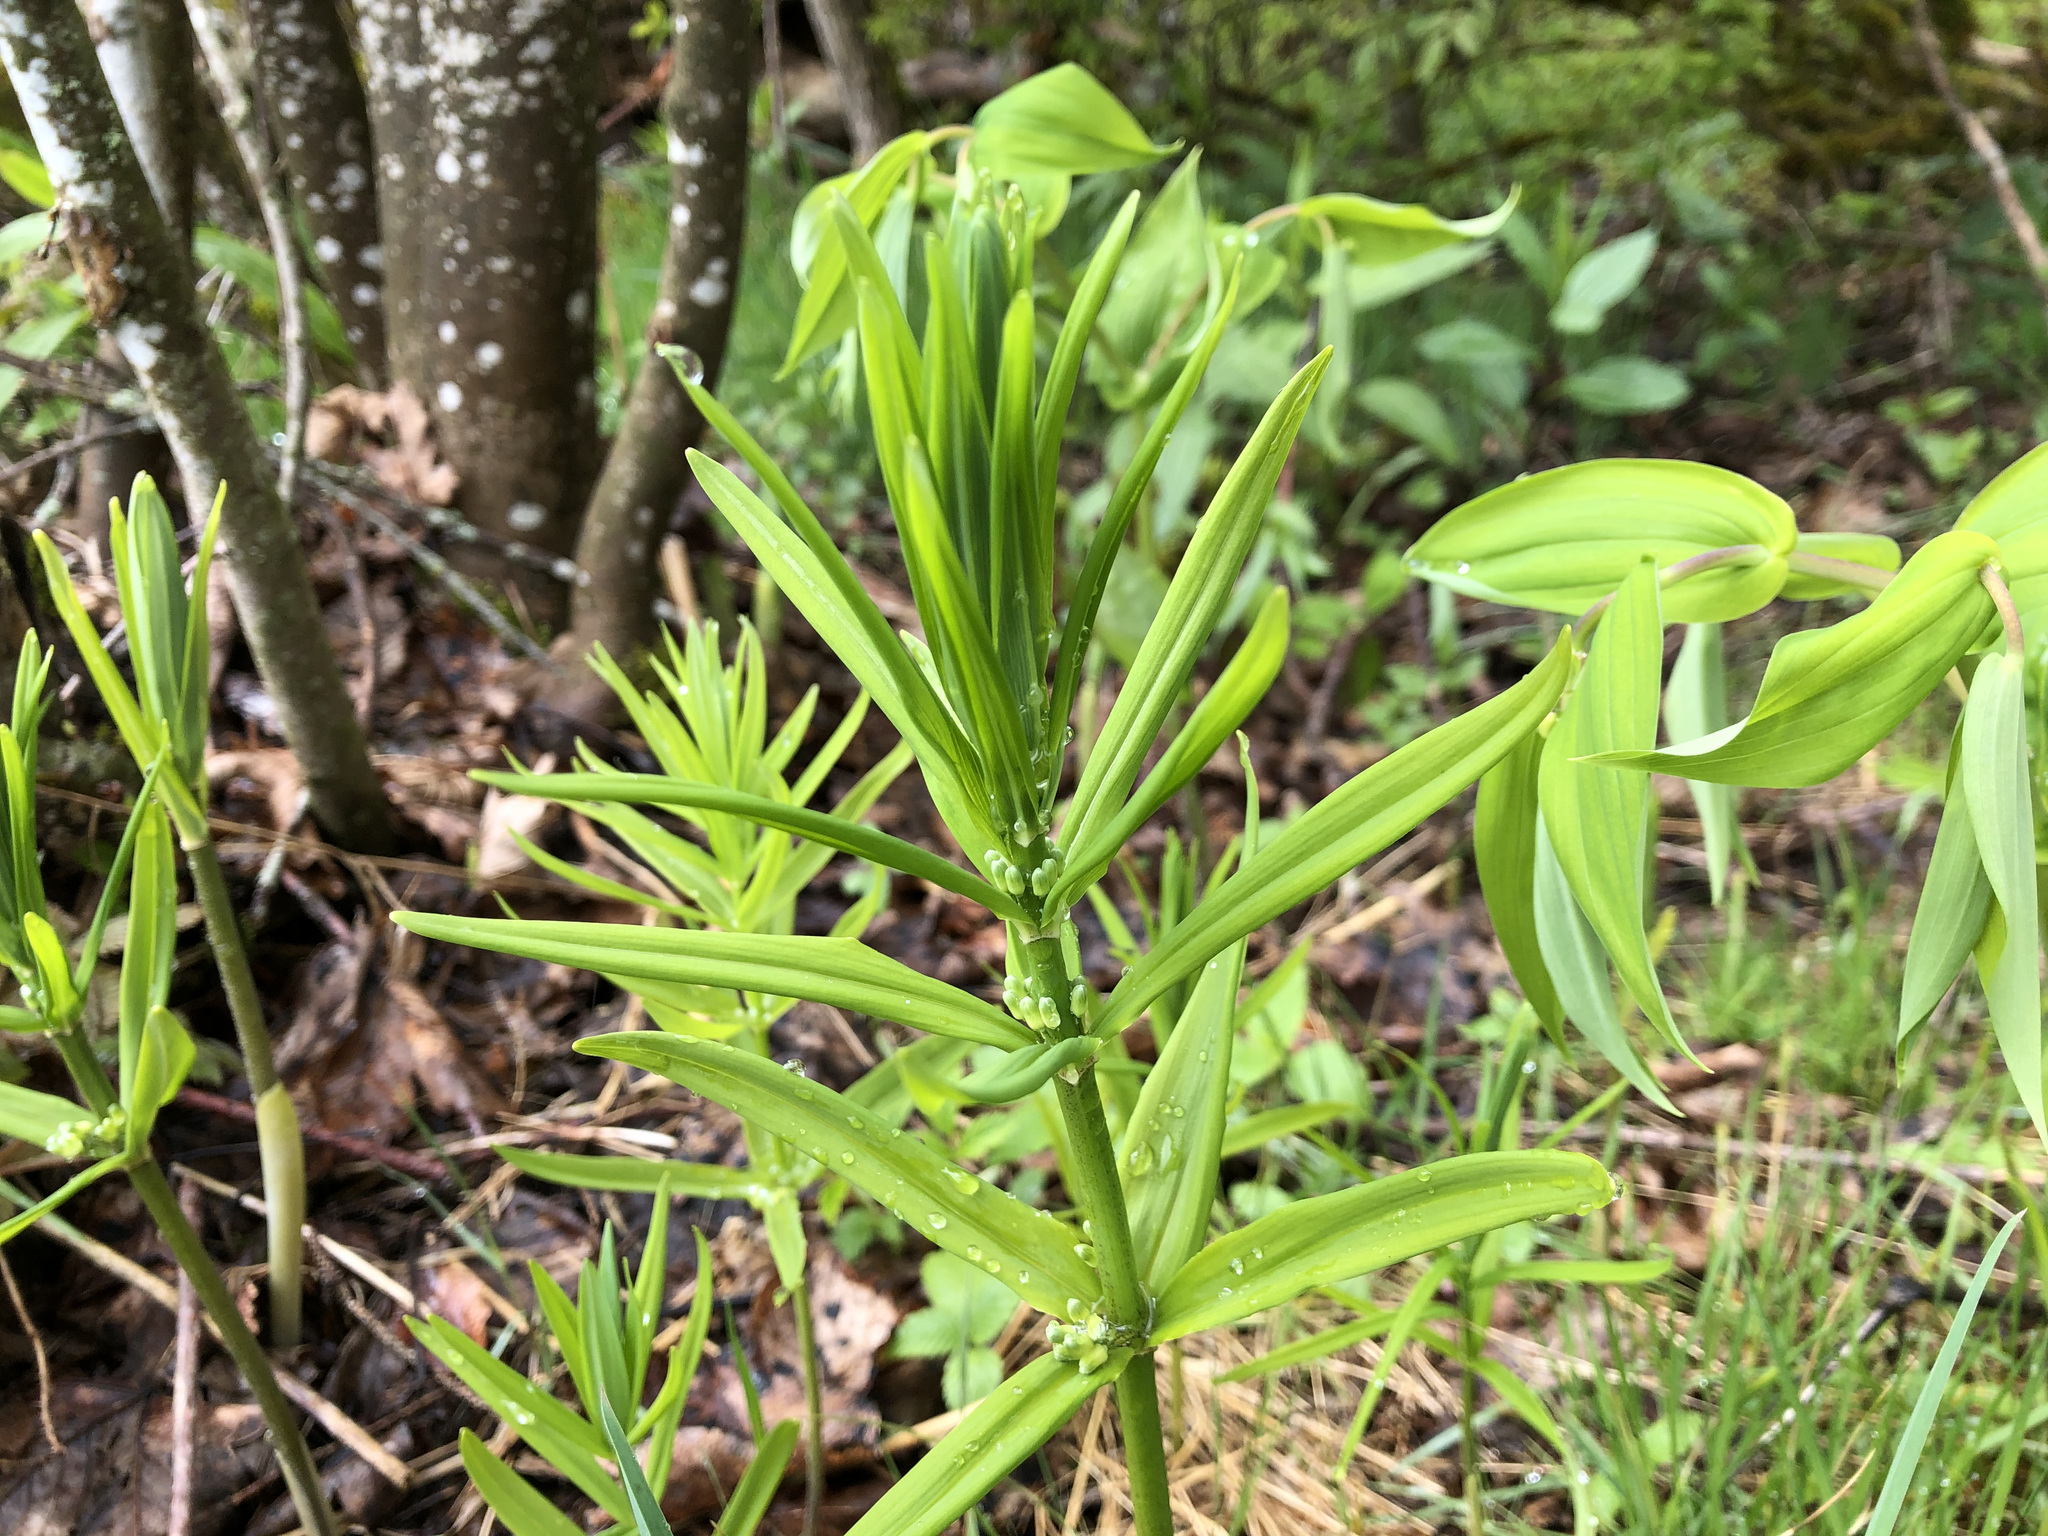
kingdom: Plantae
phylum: Tracheophyta
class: Liliopsida
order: Asparagales
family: Asparagaceae
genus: Polygonatum
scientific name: Polygonatum verticillatum
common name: Whorled solomon's-seal
